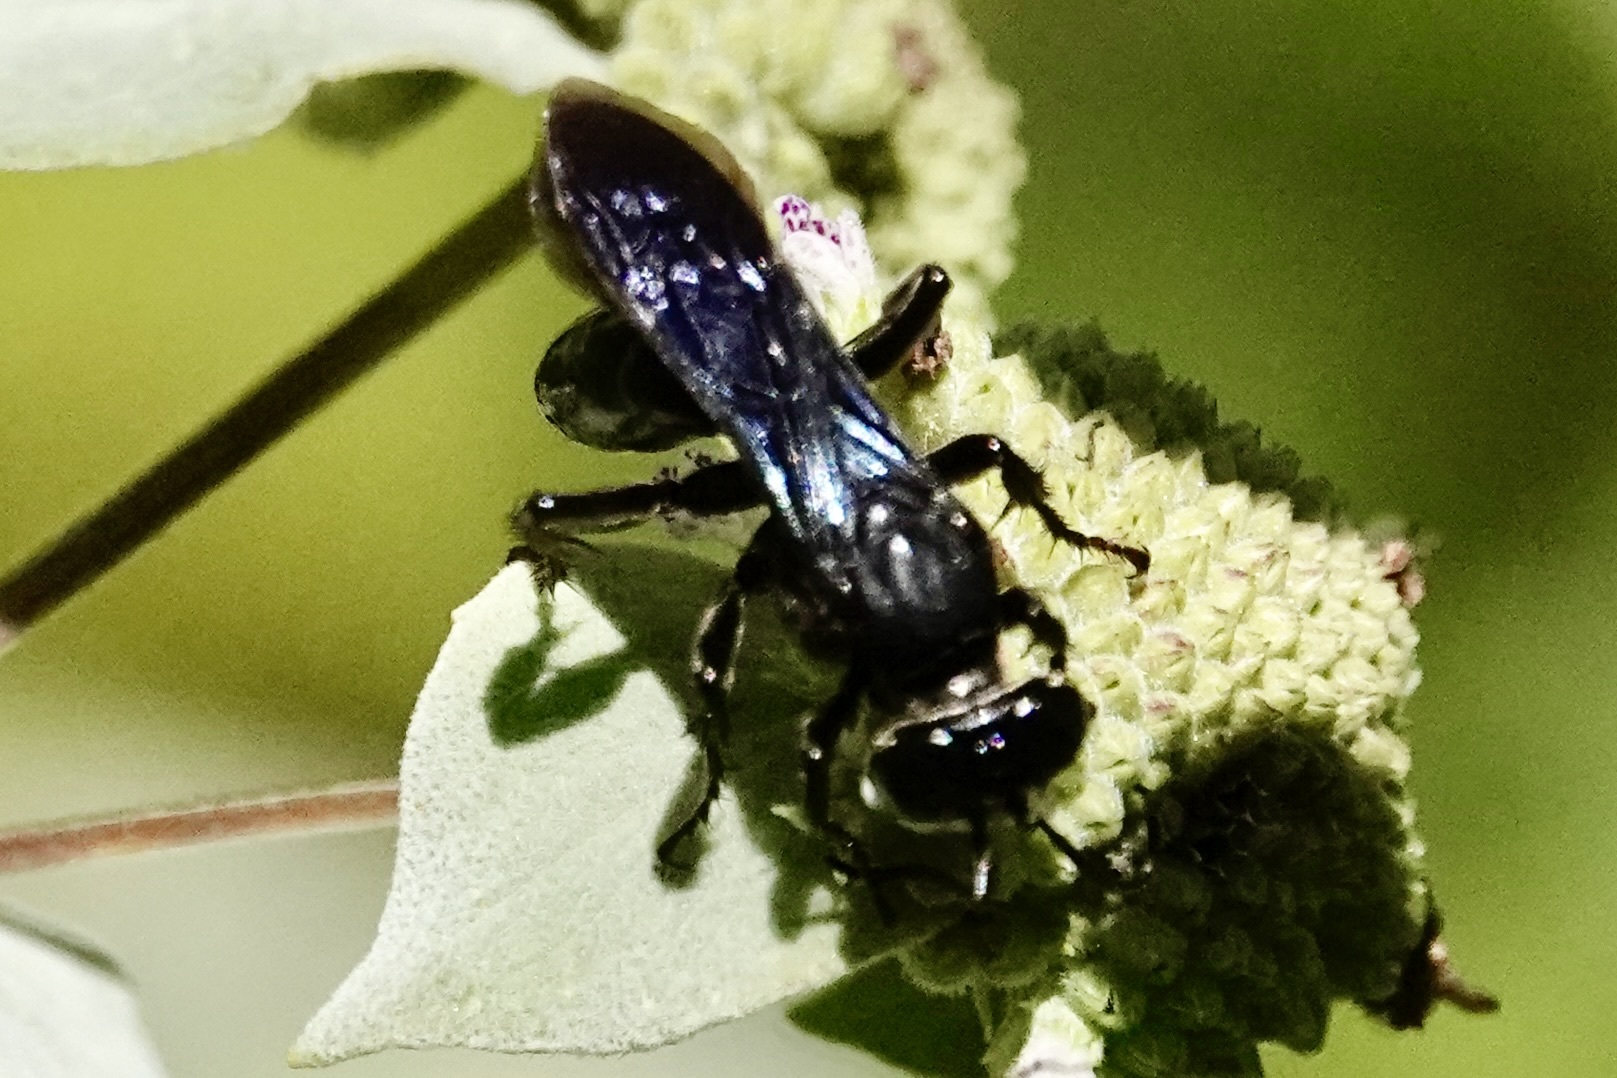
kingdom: Animalia
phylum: Arthropoda
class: Insecta
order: Hymenoptera
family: Crabronidae
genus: Larra
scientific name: Larra analis
